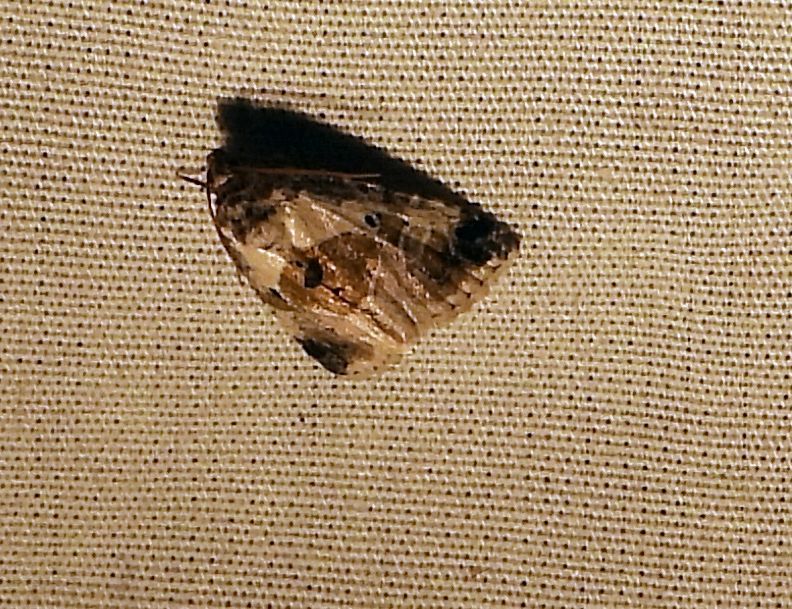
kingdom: Animalia
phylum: Arthropoda
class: Insecta
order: Lepidoptera
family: Noctuidae
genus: Maliattha
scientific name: Maliattha synochitis
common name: Black-dotted glyph
